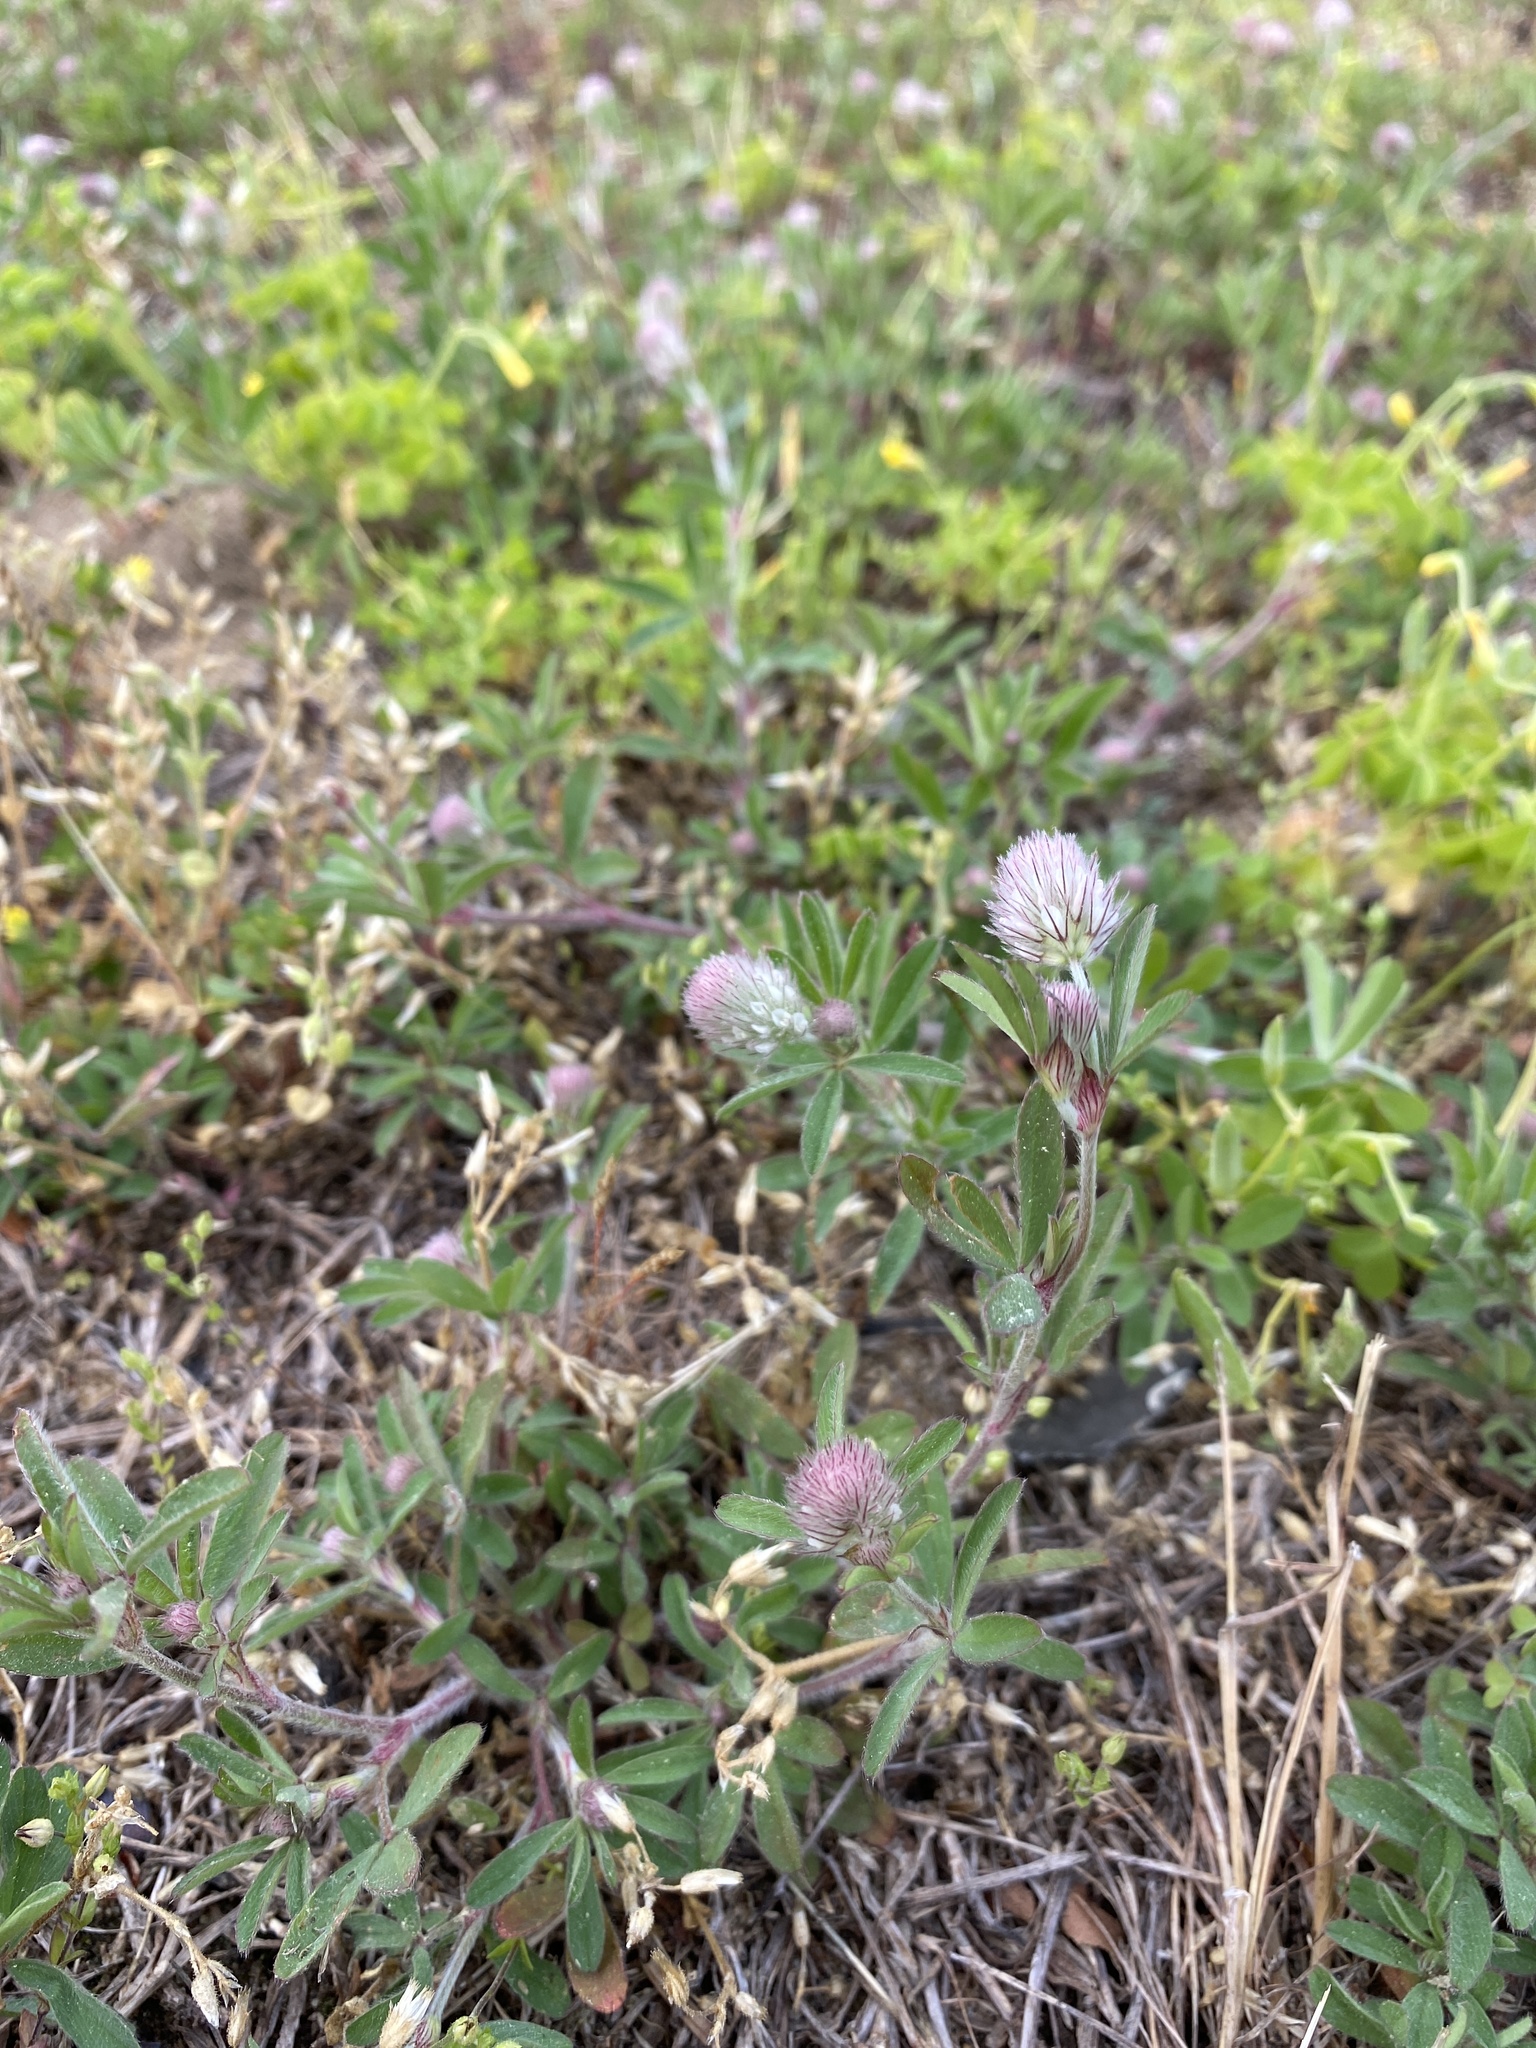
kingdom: Plantae
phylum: Tracheophyta
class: Magnoliopsida
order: Fabales
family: Fabaceae
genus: Trifolium
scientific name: Trifolium arvense
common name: Hare's-foot clover
